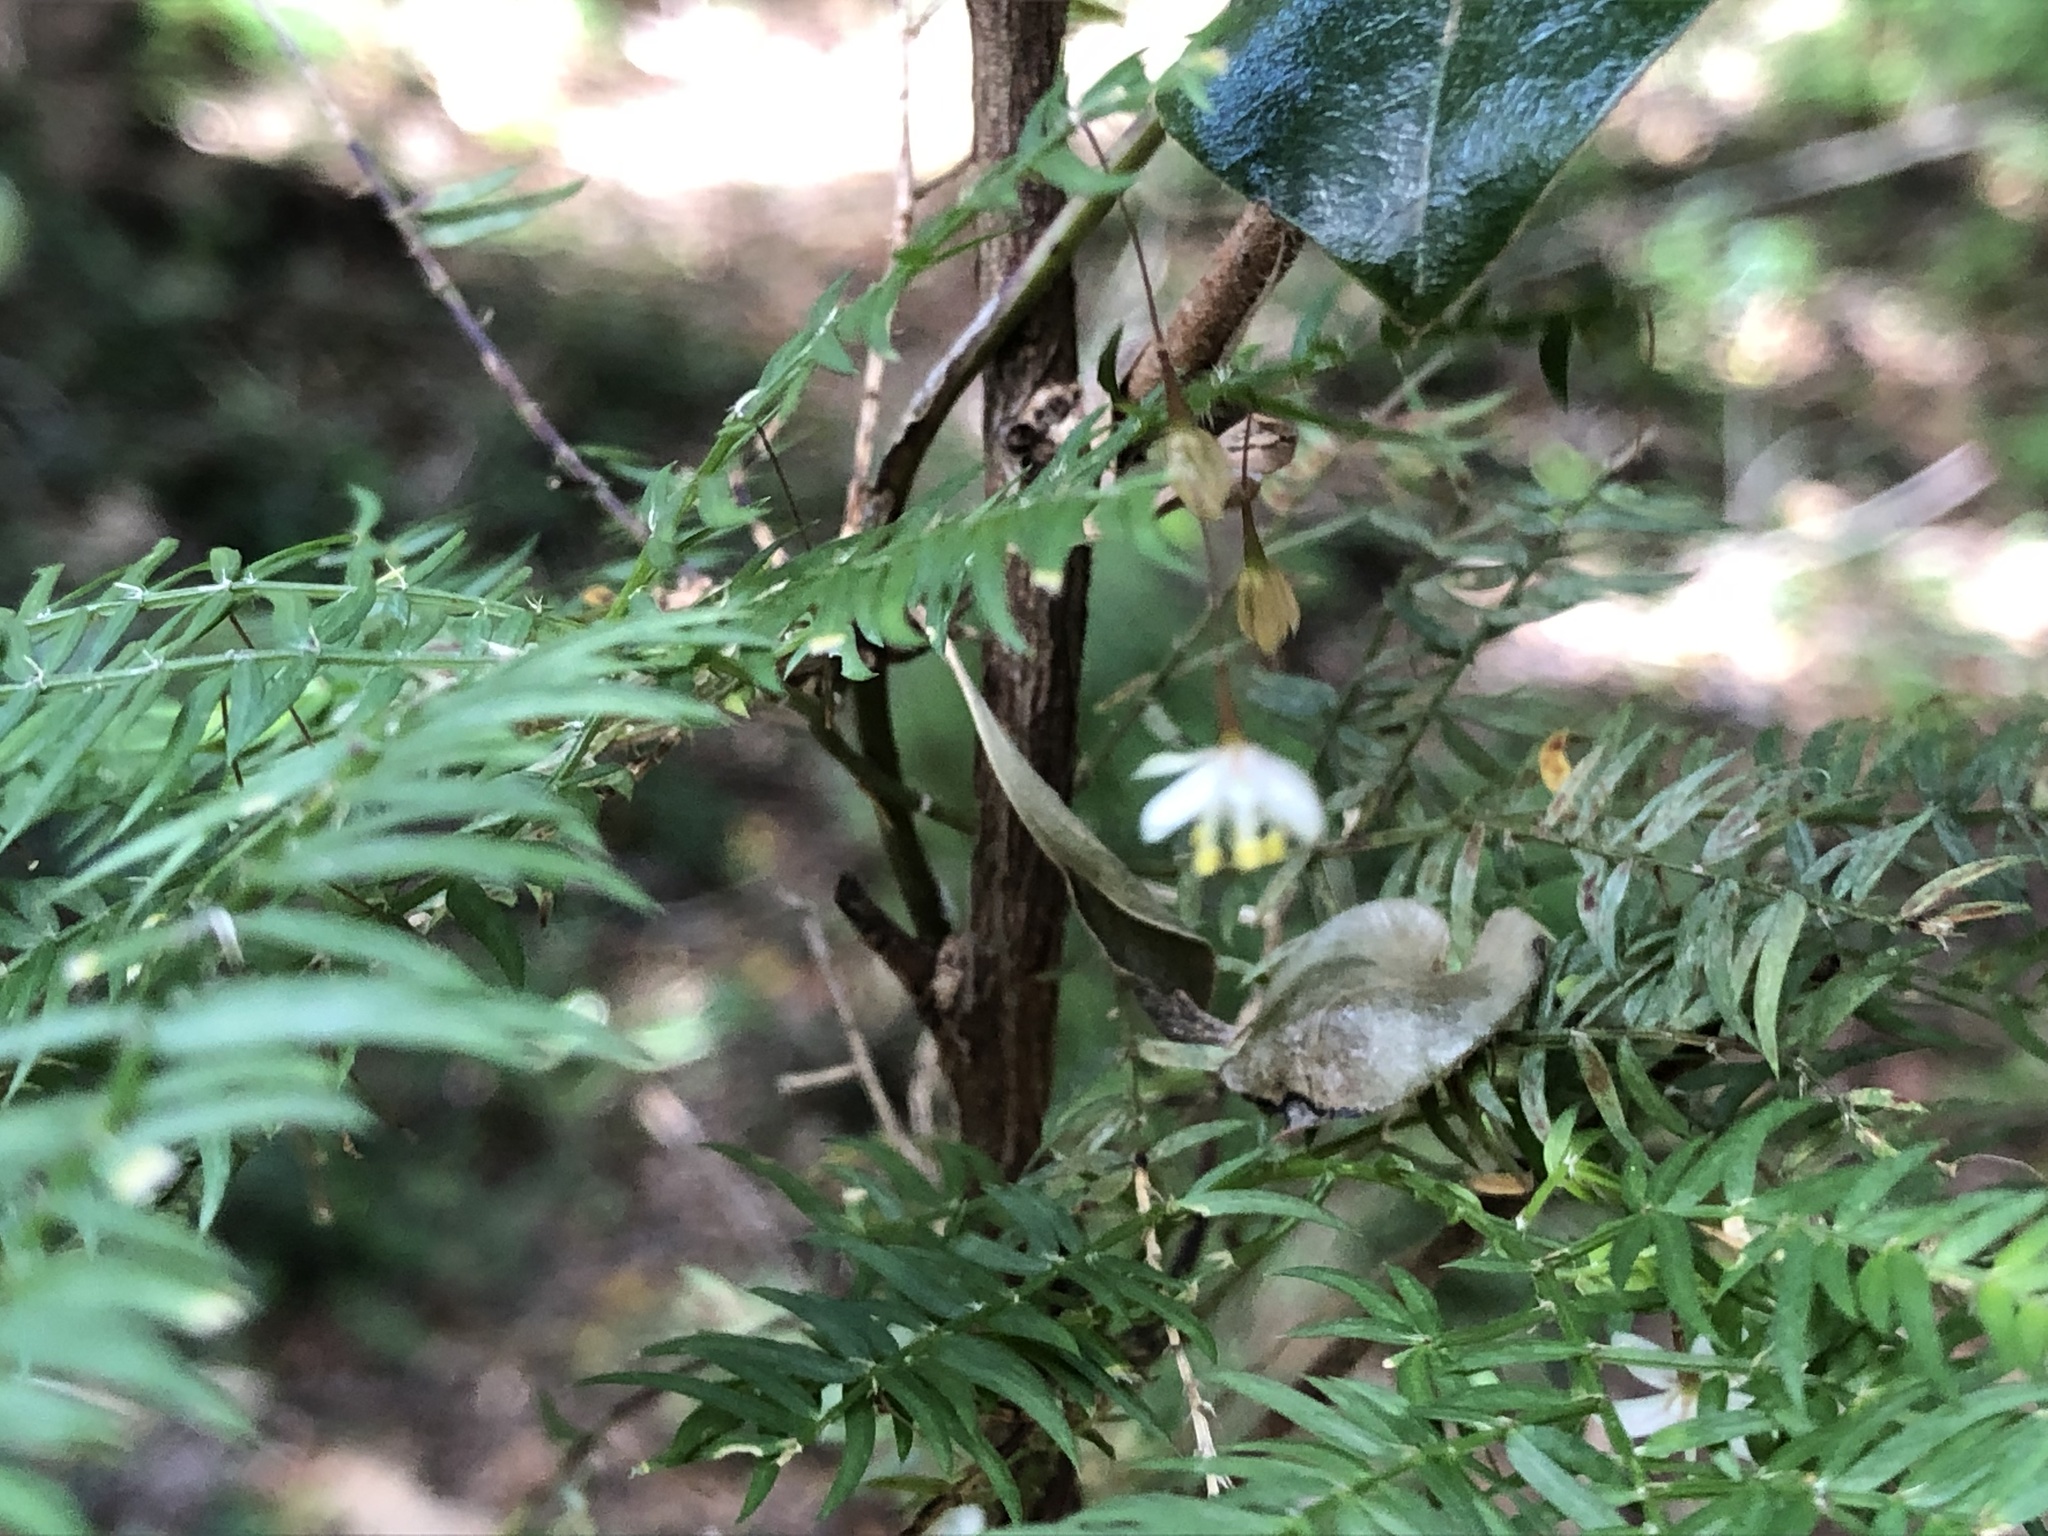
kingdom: Plantae
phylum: Tracheophyta
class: Liliopsida
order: Asparagales
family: Asparagaceae
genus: Asparagus
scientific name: Asparagus scandens
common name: Asparagus-fern
